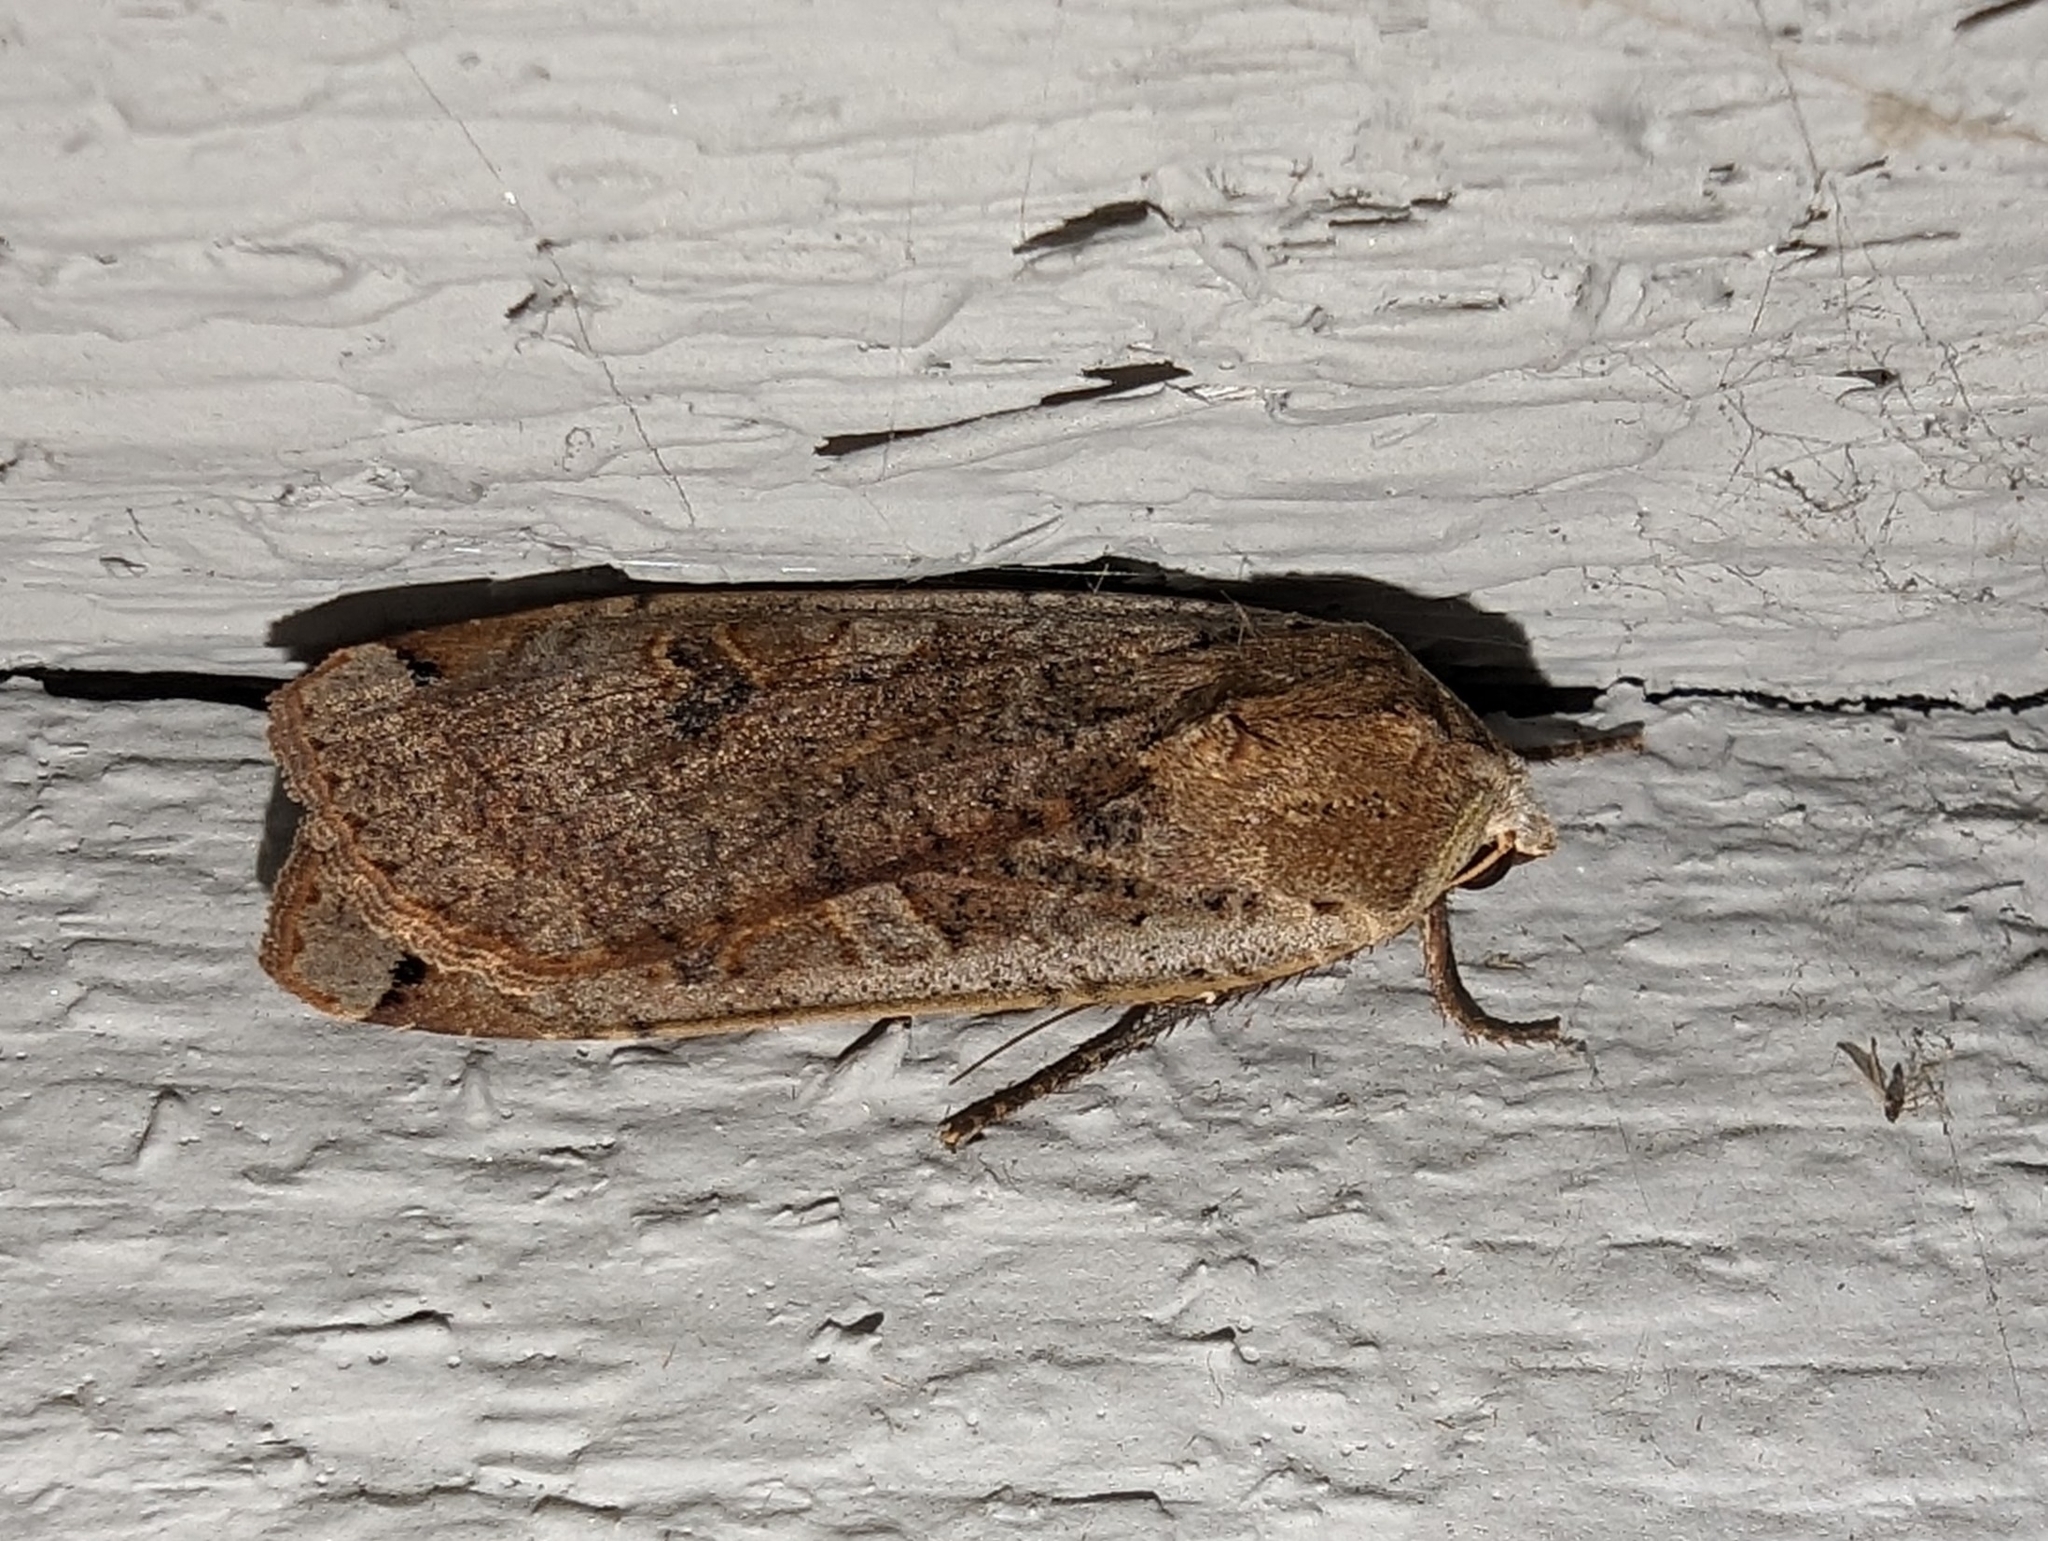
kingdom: Animalia
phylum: Arthropoda
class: Insecta
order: Lepidoptera
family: Noctuidae
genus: Noctua
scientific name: Noctua pronuba
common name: Large yellow underwing
